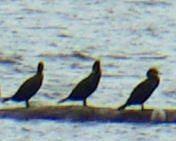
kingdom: Animalia
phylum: Chordata
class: Aves
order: Suliformes
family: Phalacrocoracidae
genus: Phalacrocorax
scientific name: Phalacrocorax auritus
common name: Double-crested cormorant
